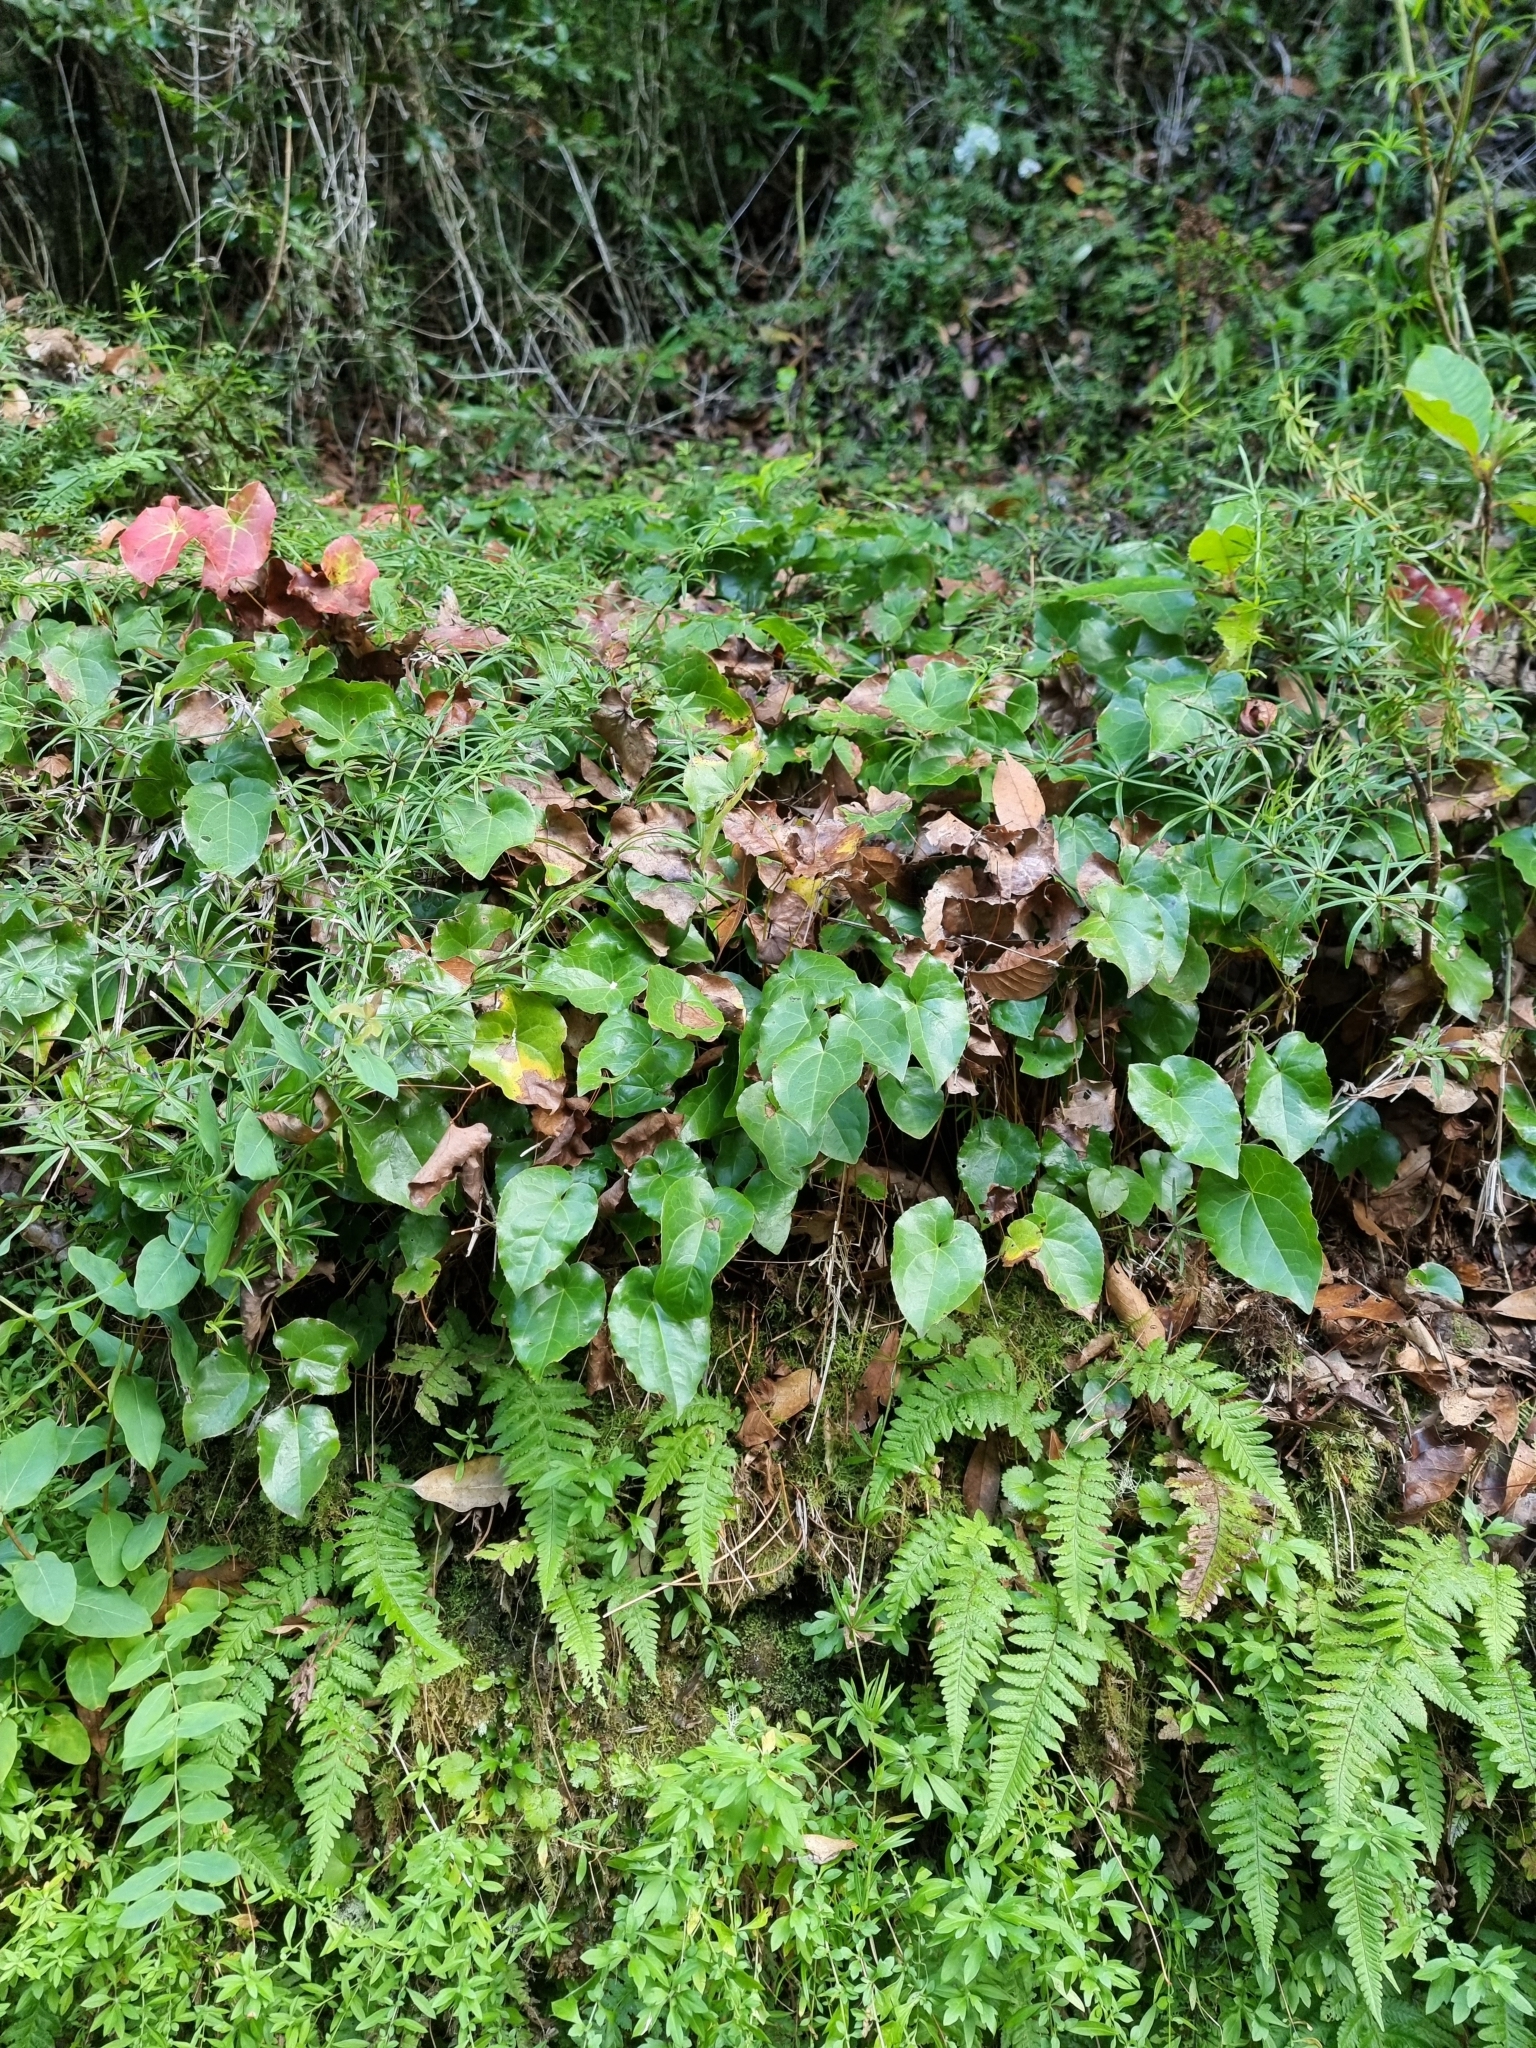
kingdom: Plantae
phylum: Tracheophyta
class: Liliopsida
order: Liliales
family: Smilacaceae
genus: Smilax
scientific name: Smilax canariensis
